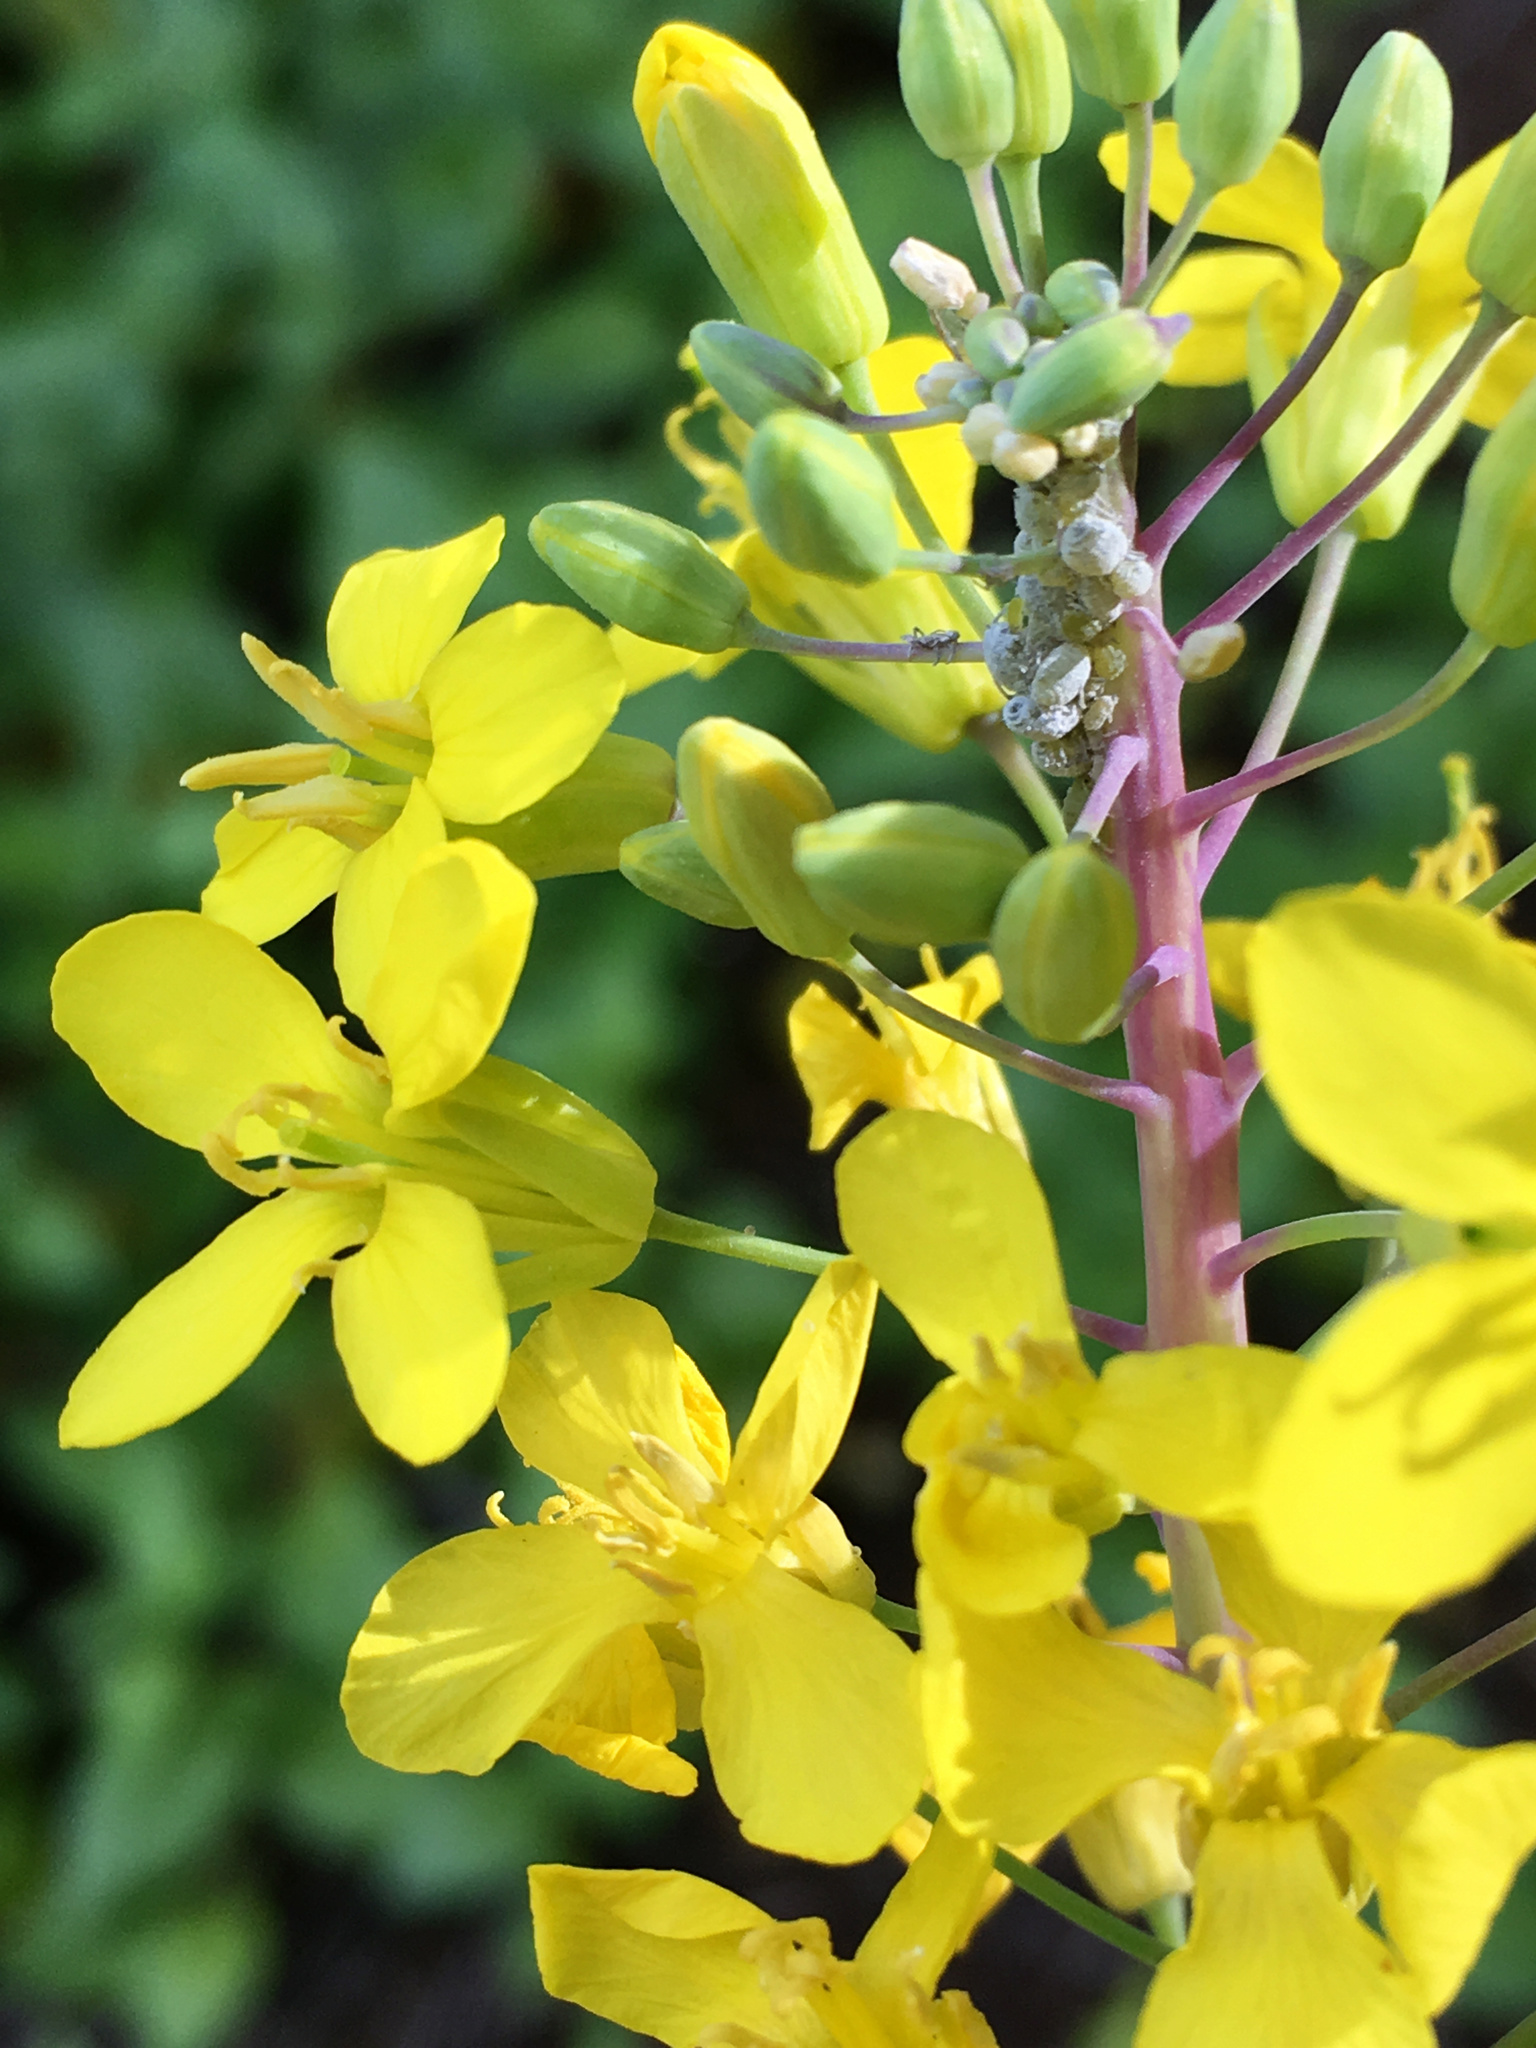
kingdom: Plantae
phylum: Tracheophyta
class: Magnoliopsida
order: Brassicales
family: Brassicaceae
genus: Brassica
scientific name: Brassica oleracea
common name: Cabbage
